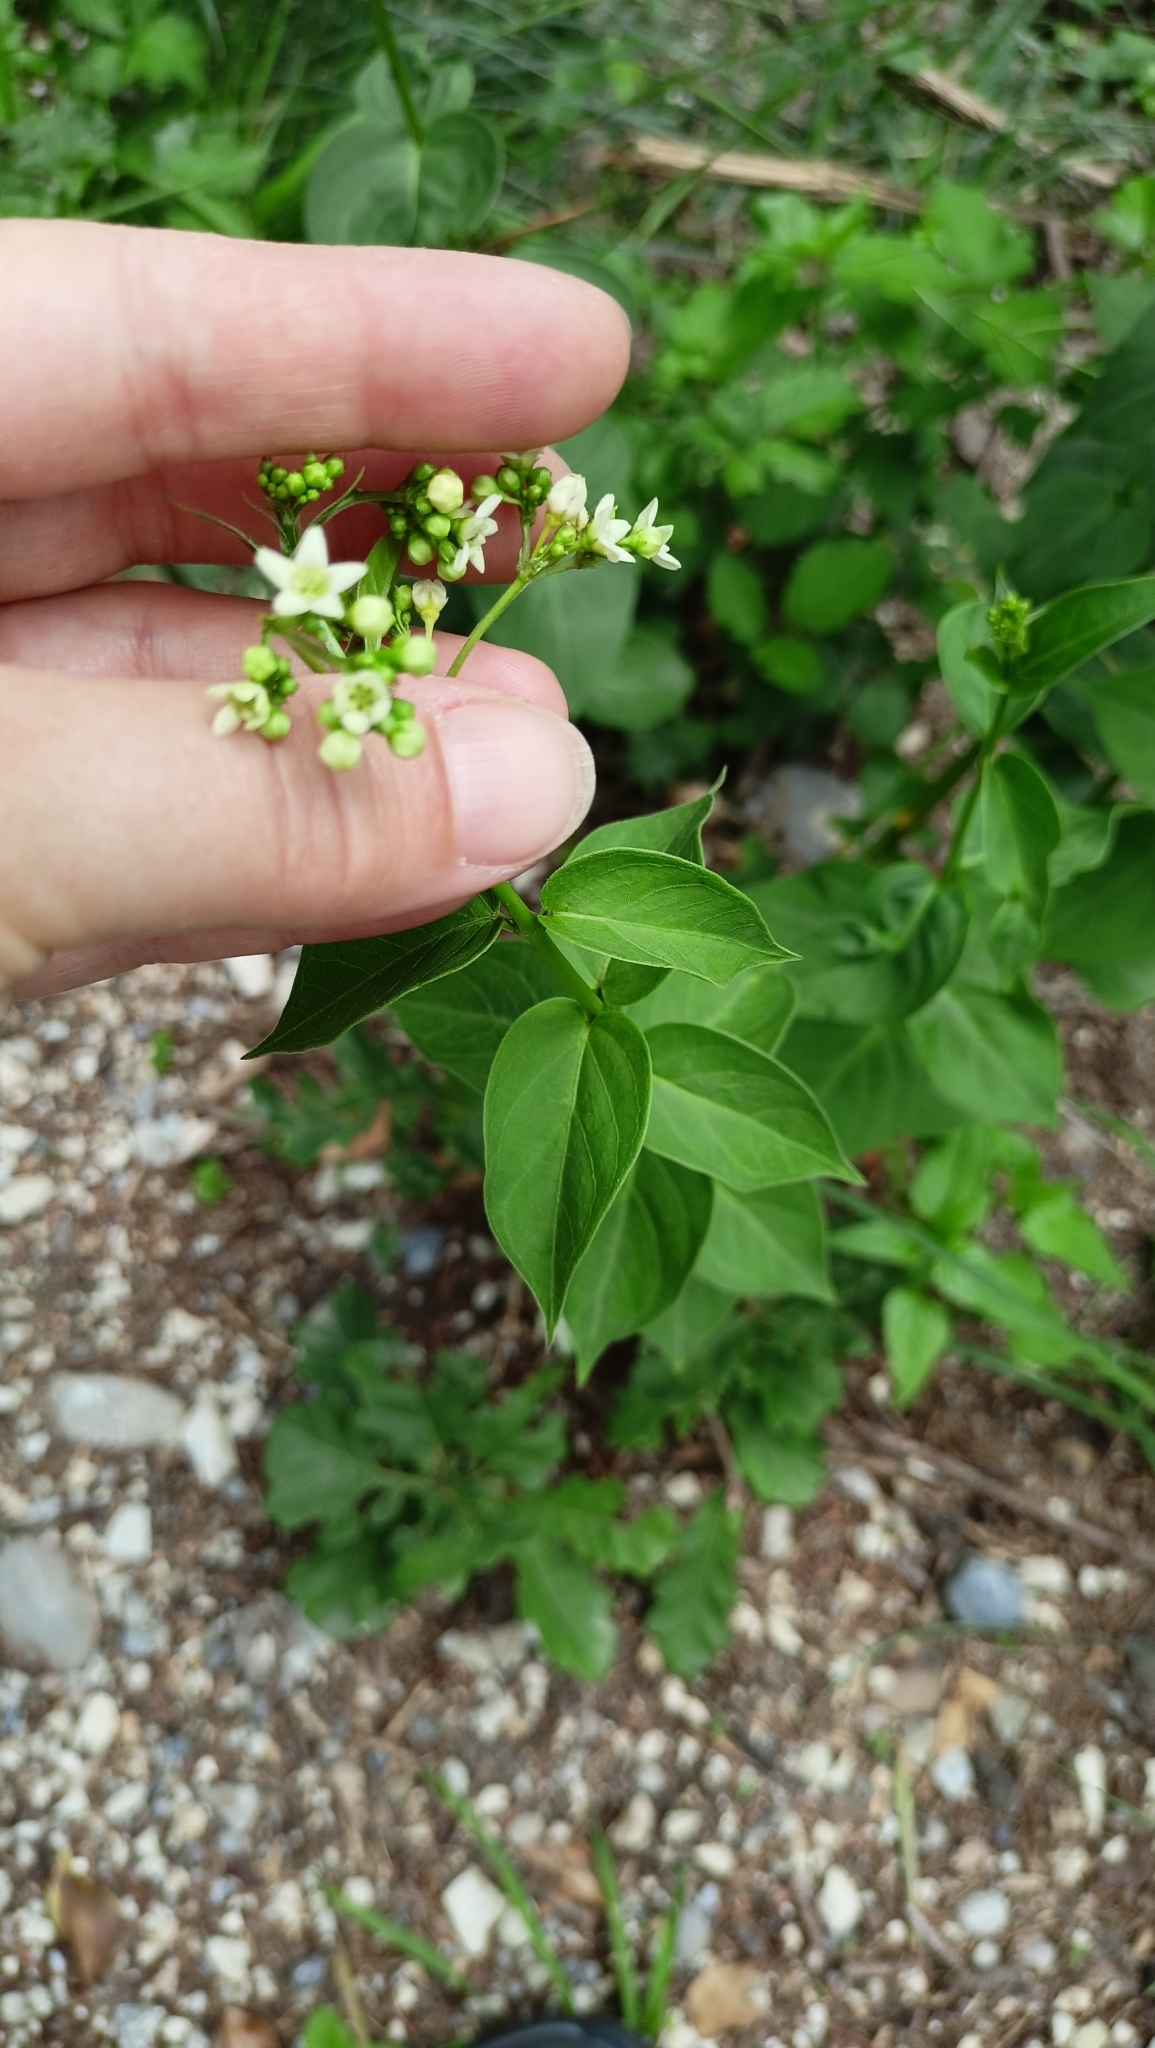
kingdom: Plantae
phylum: Tracheophyta
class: Magnoliopsida
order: Gentianales
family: Apocynaceae
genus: Vincetoxicum
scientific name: Vincetoxicum hirundinaria
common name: White swallowwort
